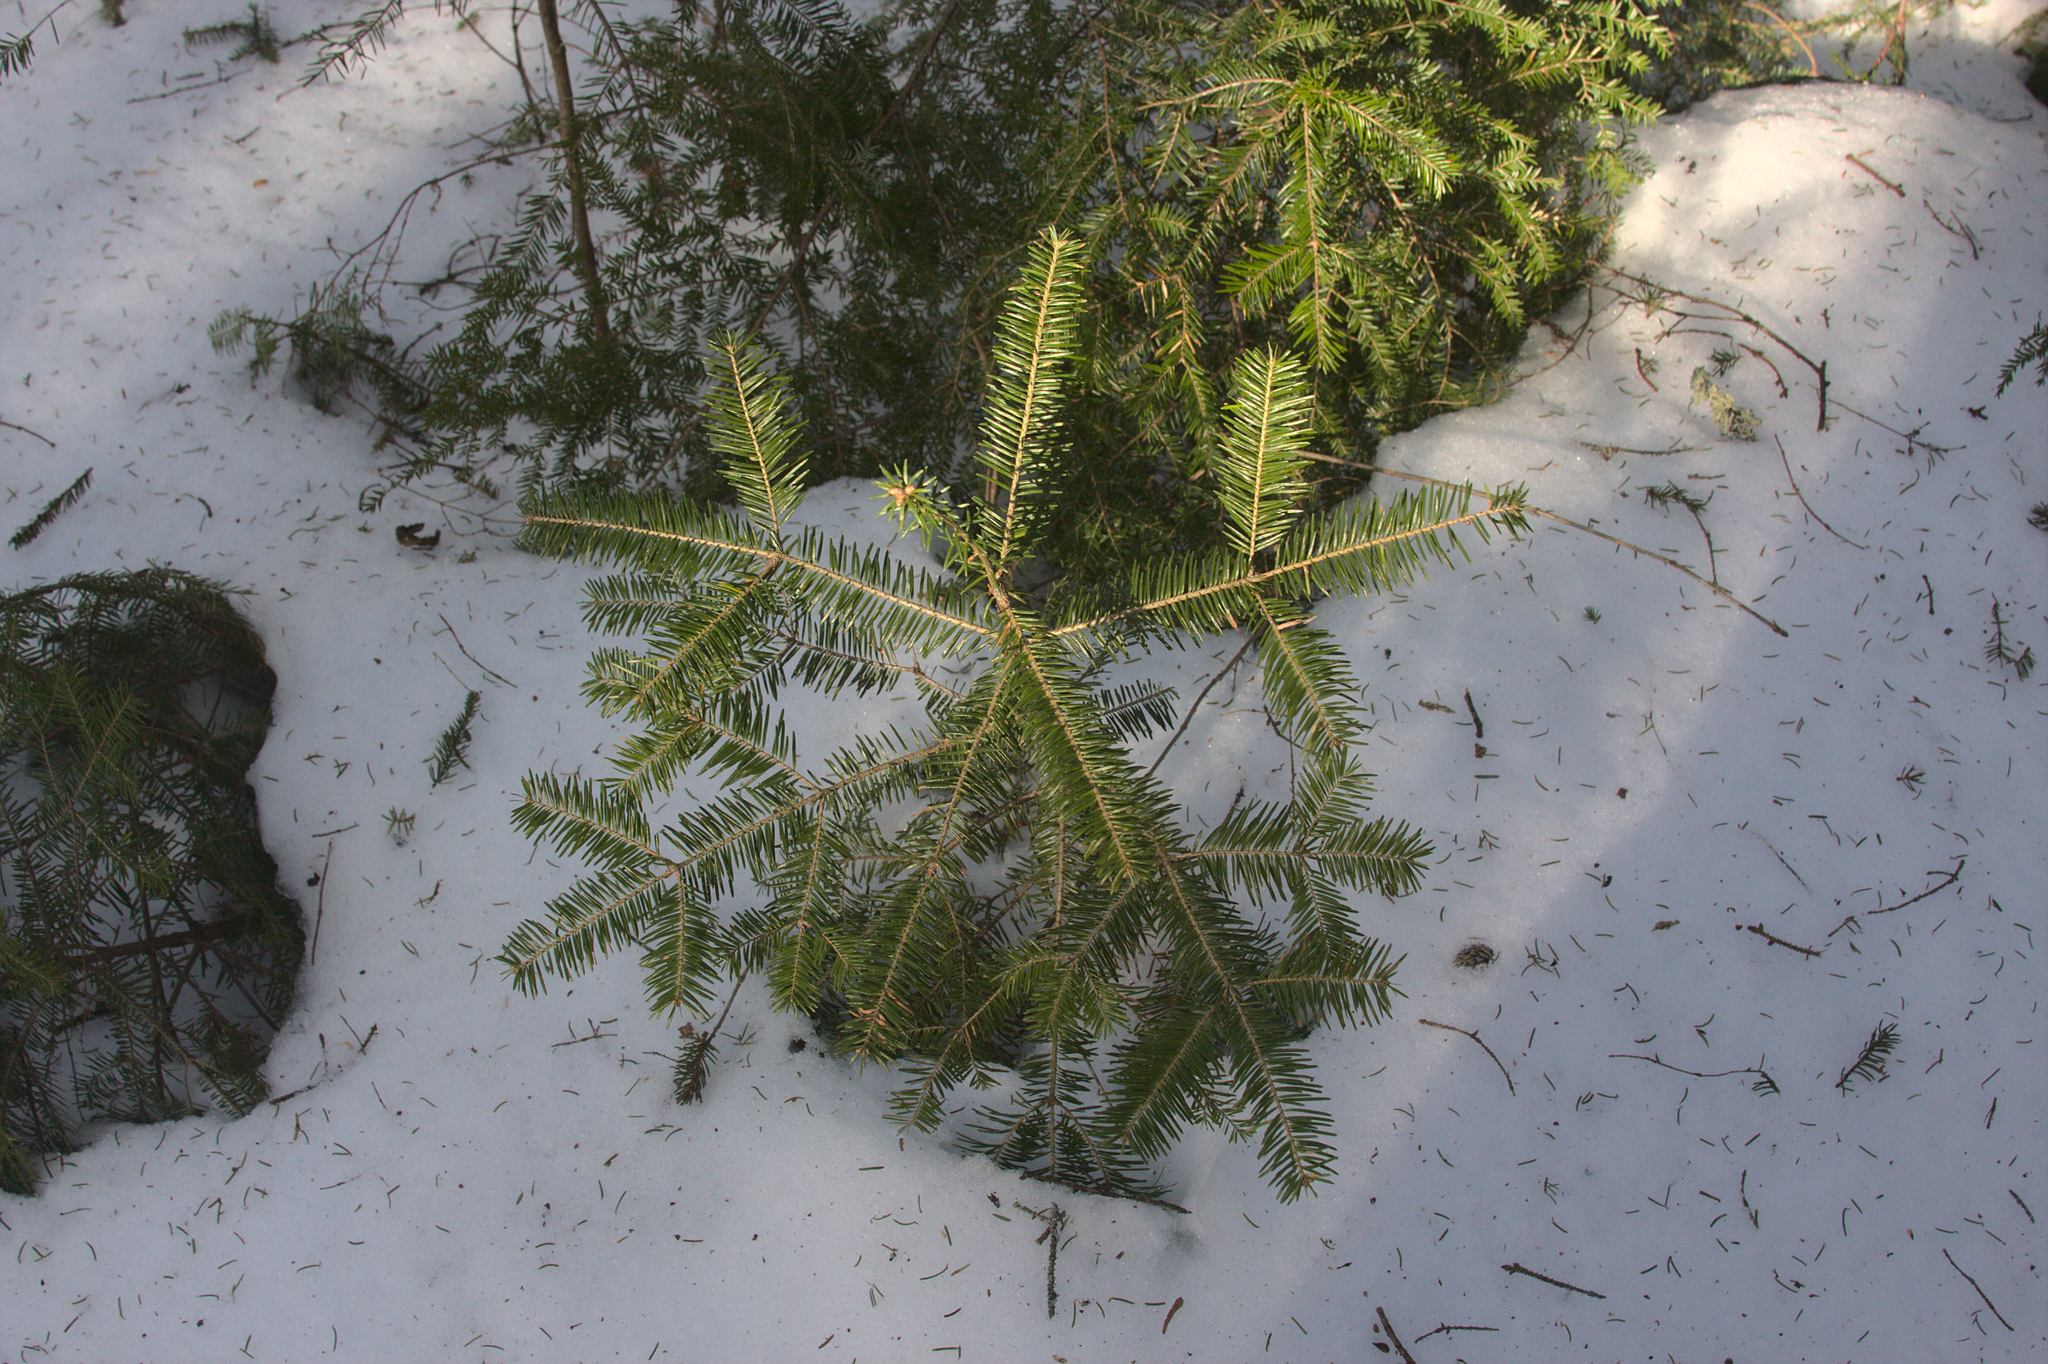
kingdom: Plantae
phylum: Tracheophyta
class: Pinopsida
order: Pinales
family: Pinaceae
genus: Abies
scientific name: Abies balsamea
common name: Balsam fir
